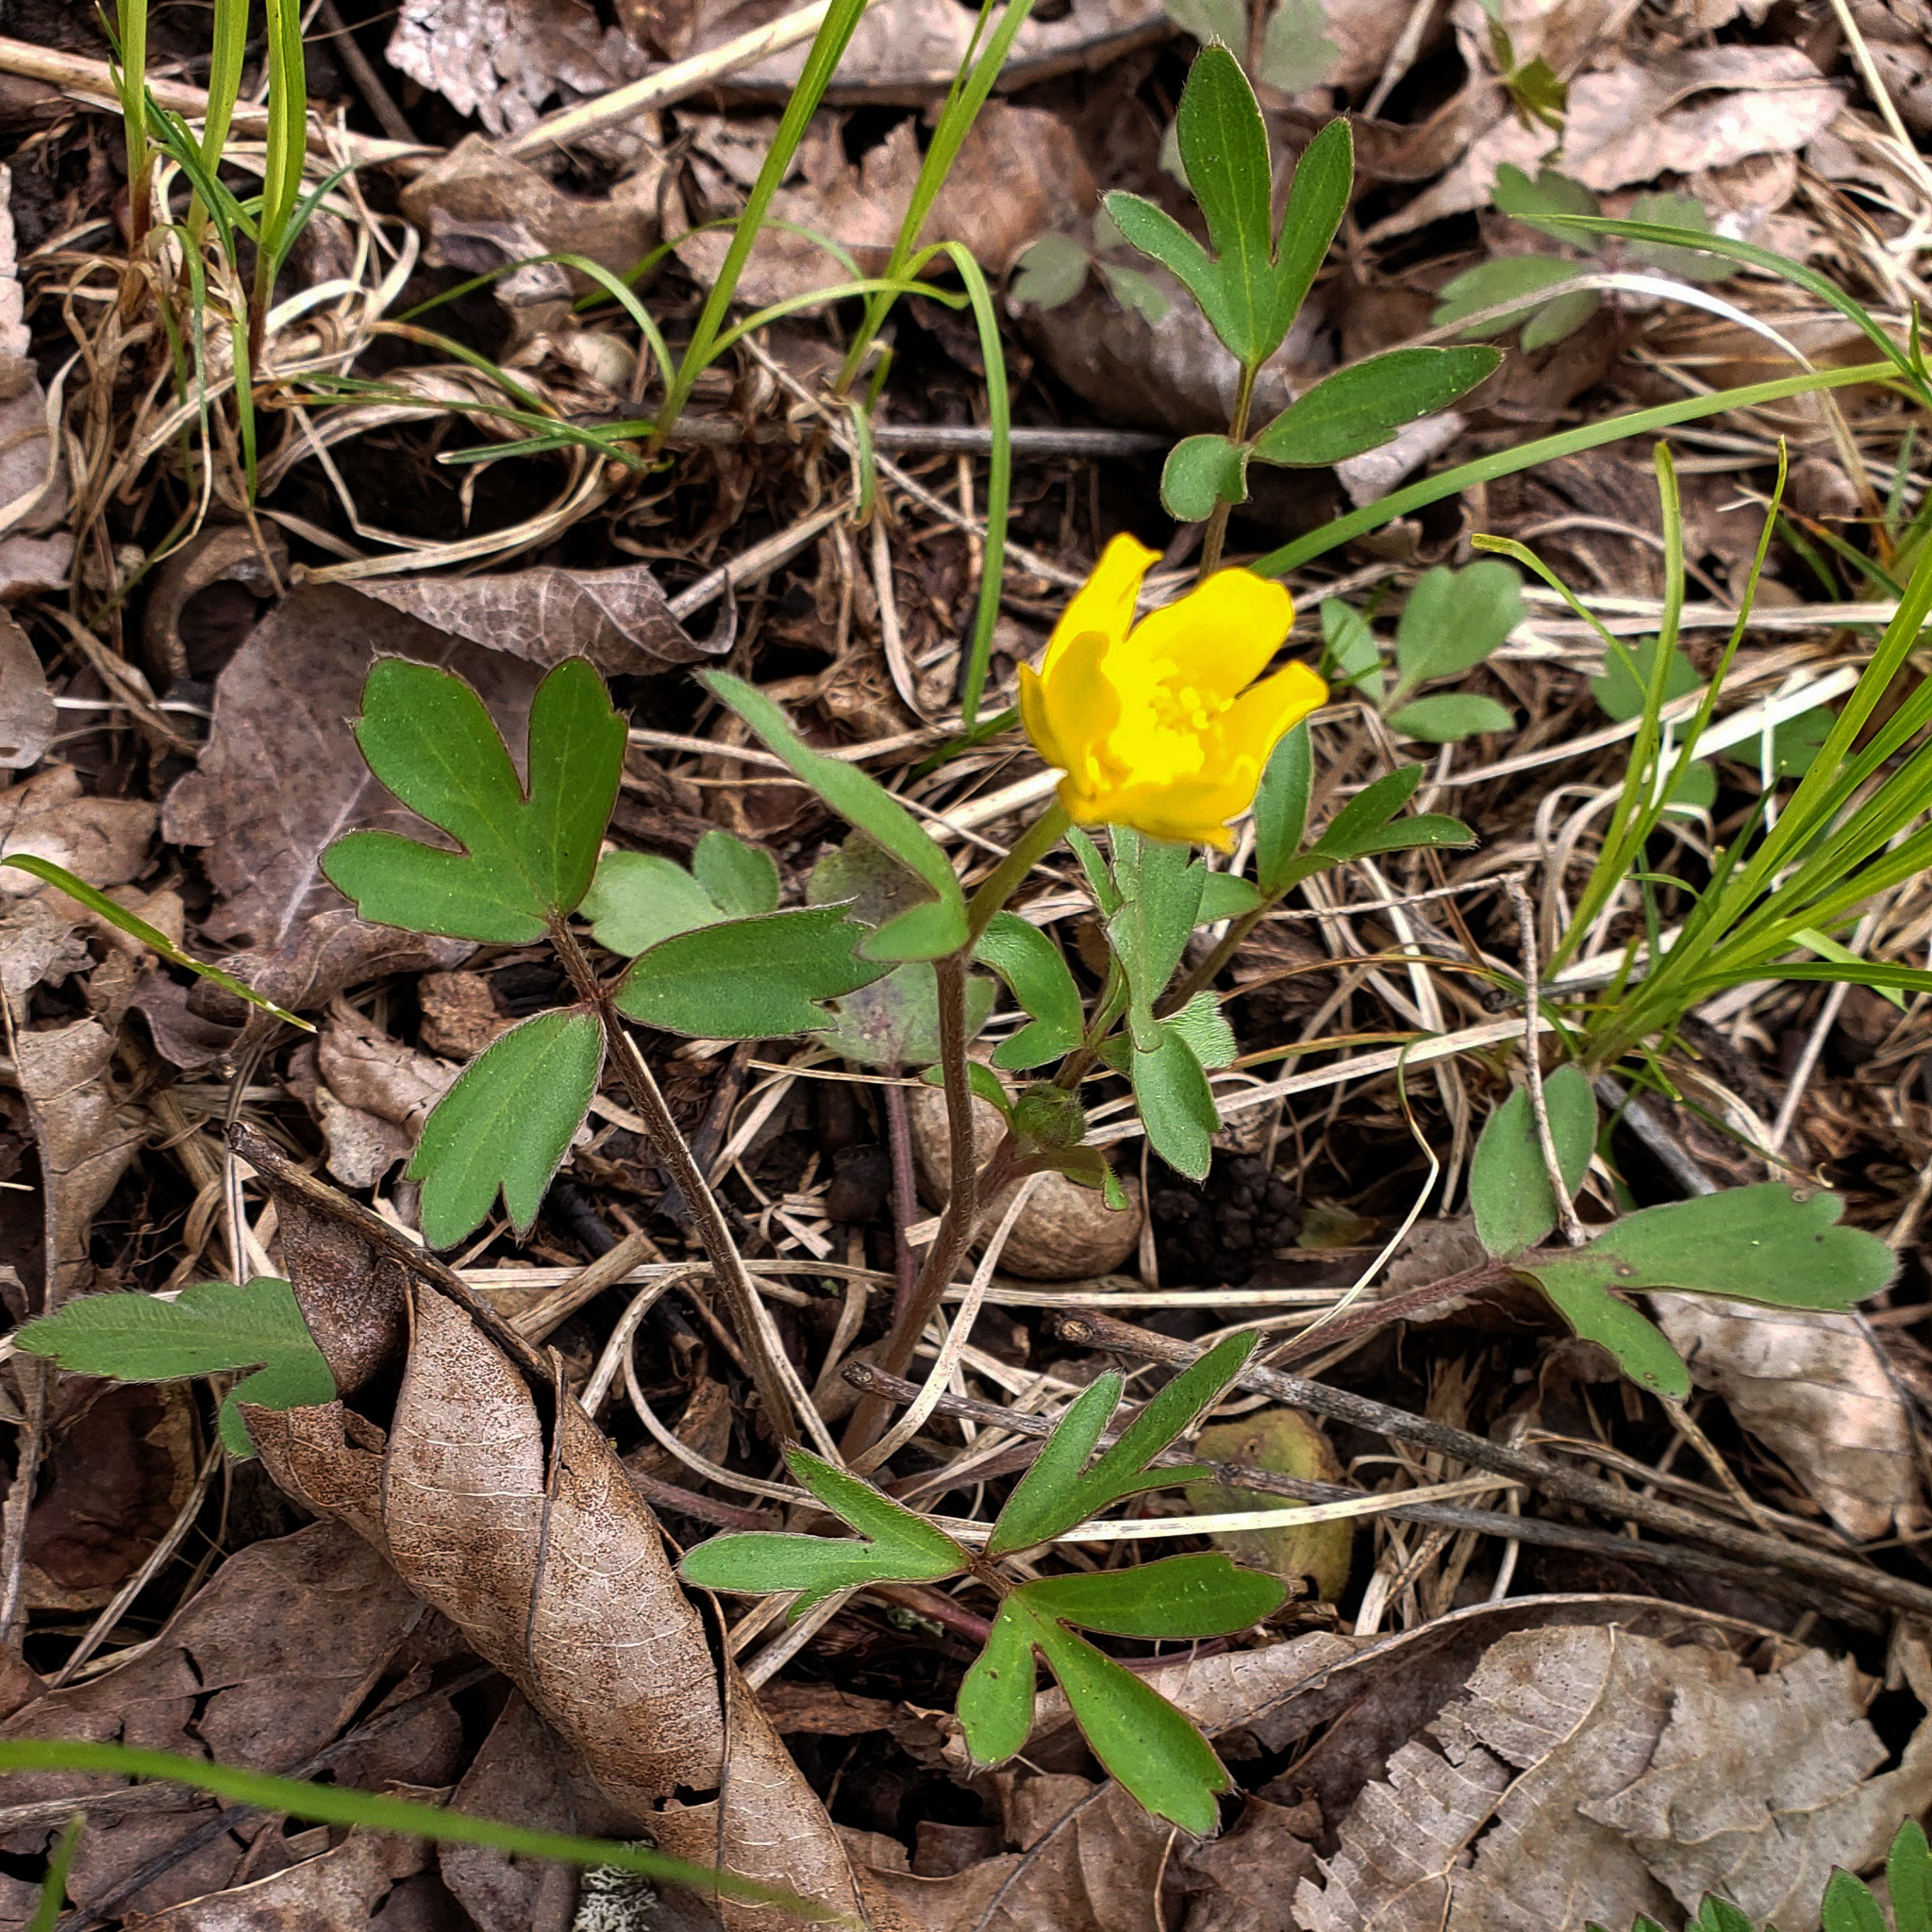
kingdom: Plantae
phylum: Tracheophyta
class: Magnoliopsida
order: Ranunculales
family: Ranunculaceae
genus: Ranunculus
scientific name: Ranunculus fascicularis
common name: Early buttercup
